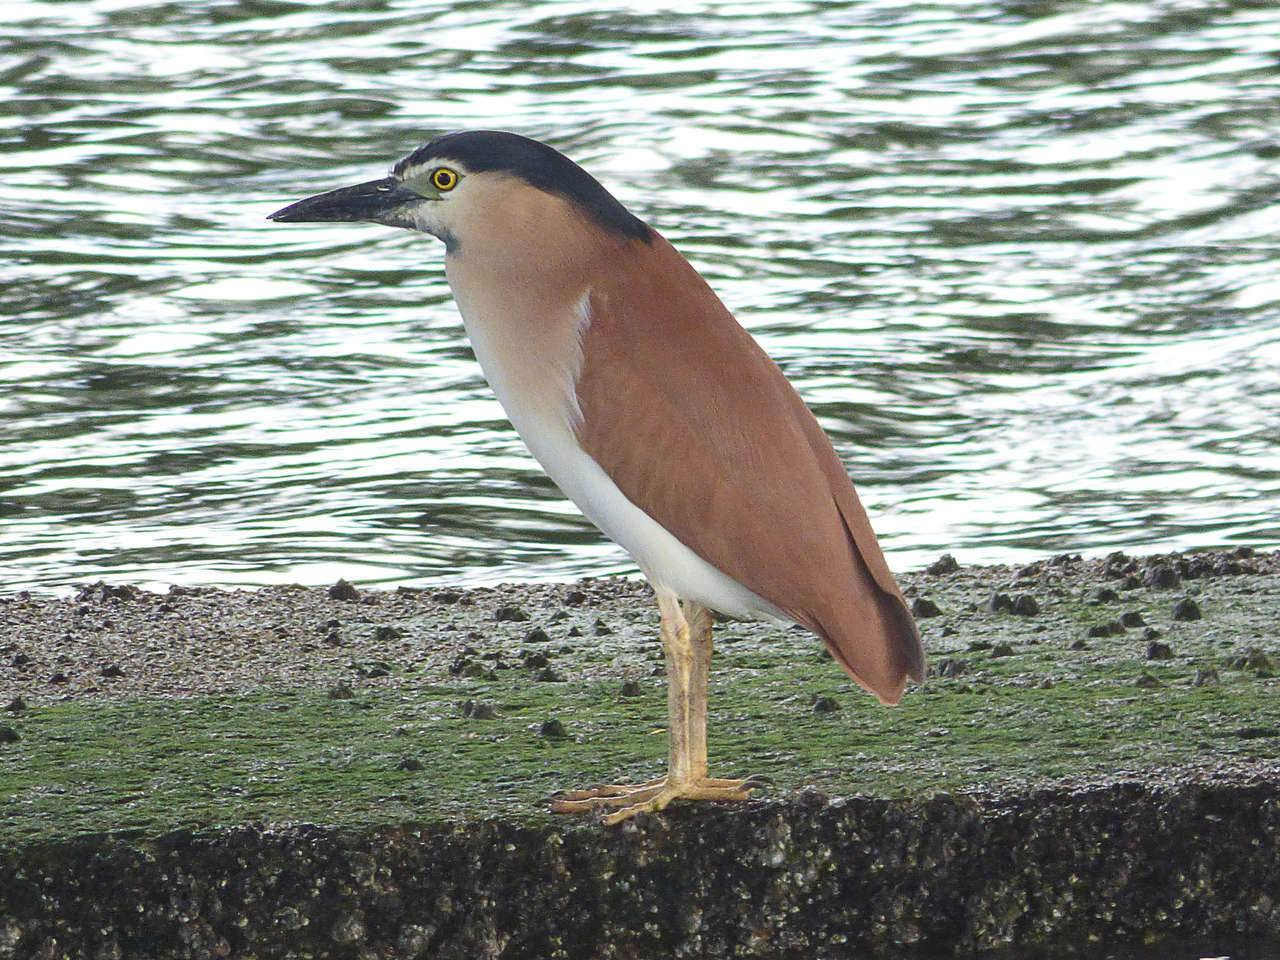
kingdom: Animalia
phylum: Chordata
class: Aves
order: Pelecaniformes
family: Ardeidae
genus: Nycticorax
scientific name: Nycticorax caledonicus
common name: Rufous night-heron
